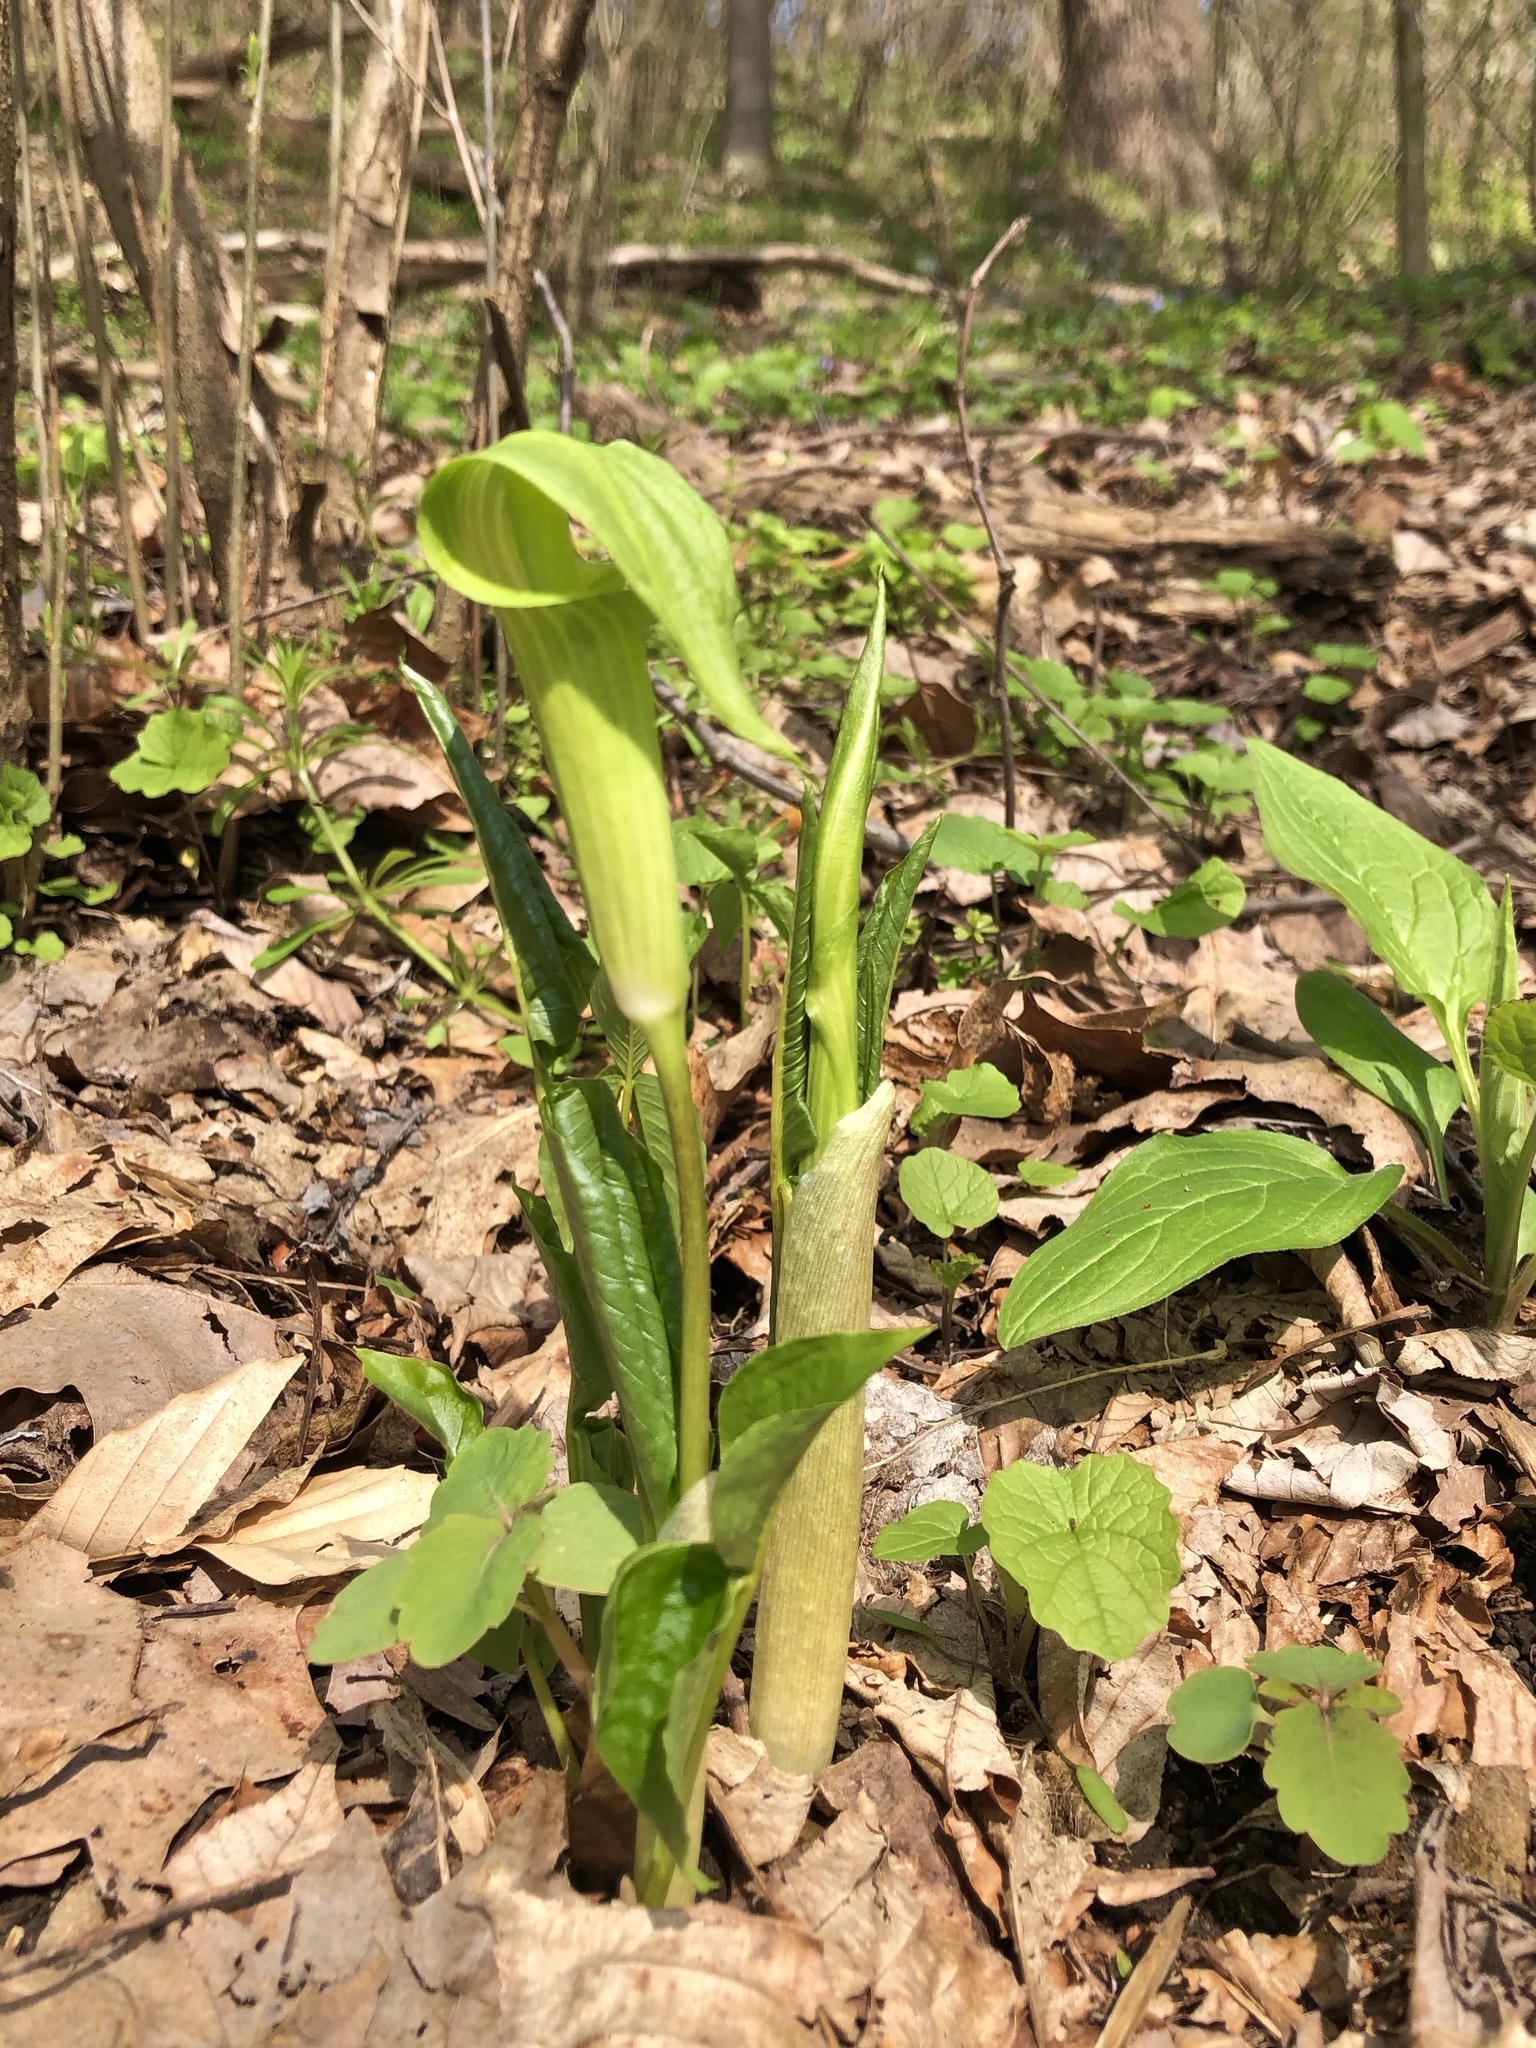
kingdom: Plantae
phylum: Tracheophyta
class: Liliopsida
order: Alismatales
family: Araceae
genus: Arisaema
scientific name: Arisaema triphyllum
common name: Jack-in-the-pulpit
